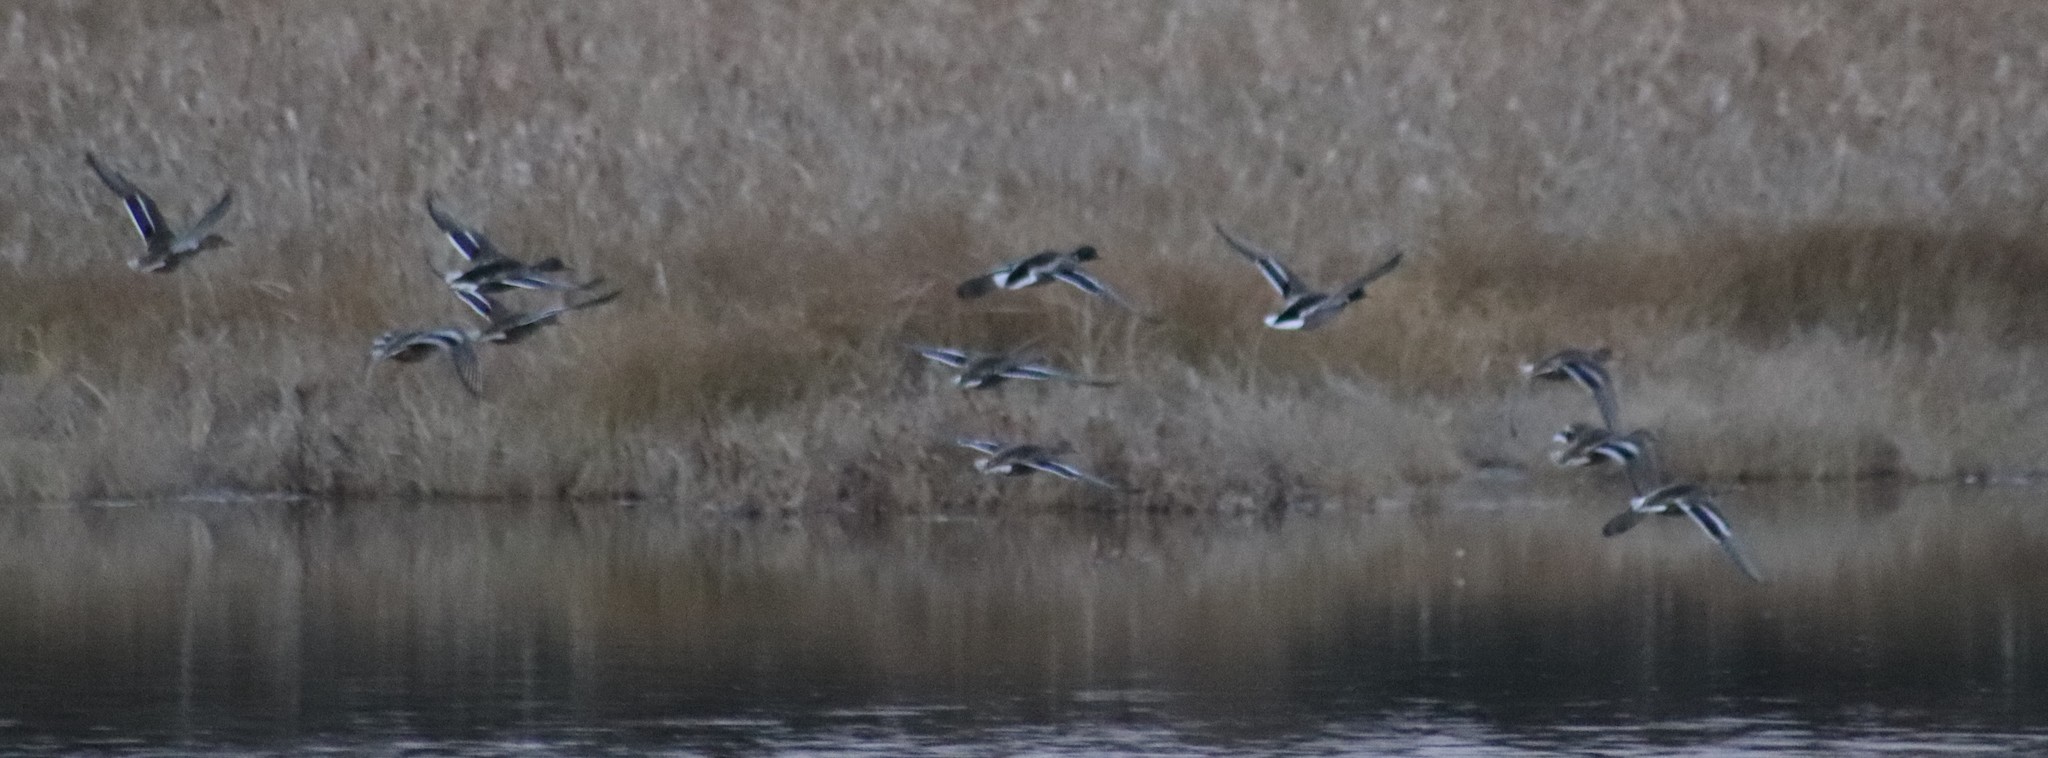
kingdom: Animalia
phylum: Chordata
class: Aves
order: Anseriformes
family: Anatidae
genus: Anas
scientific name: Anas platyrhynchos
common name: Mallard
